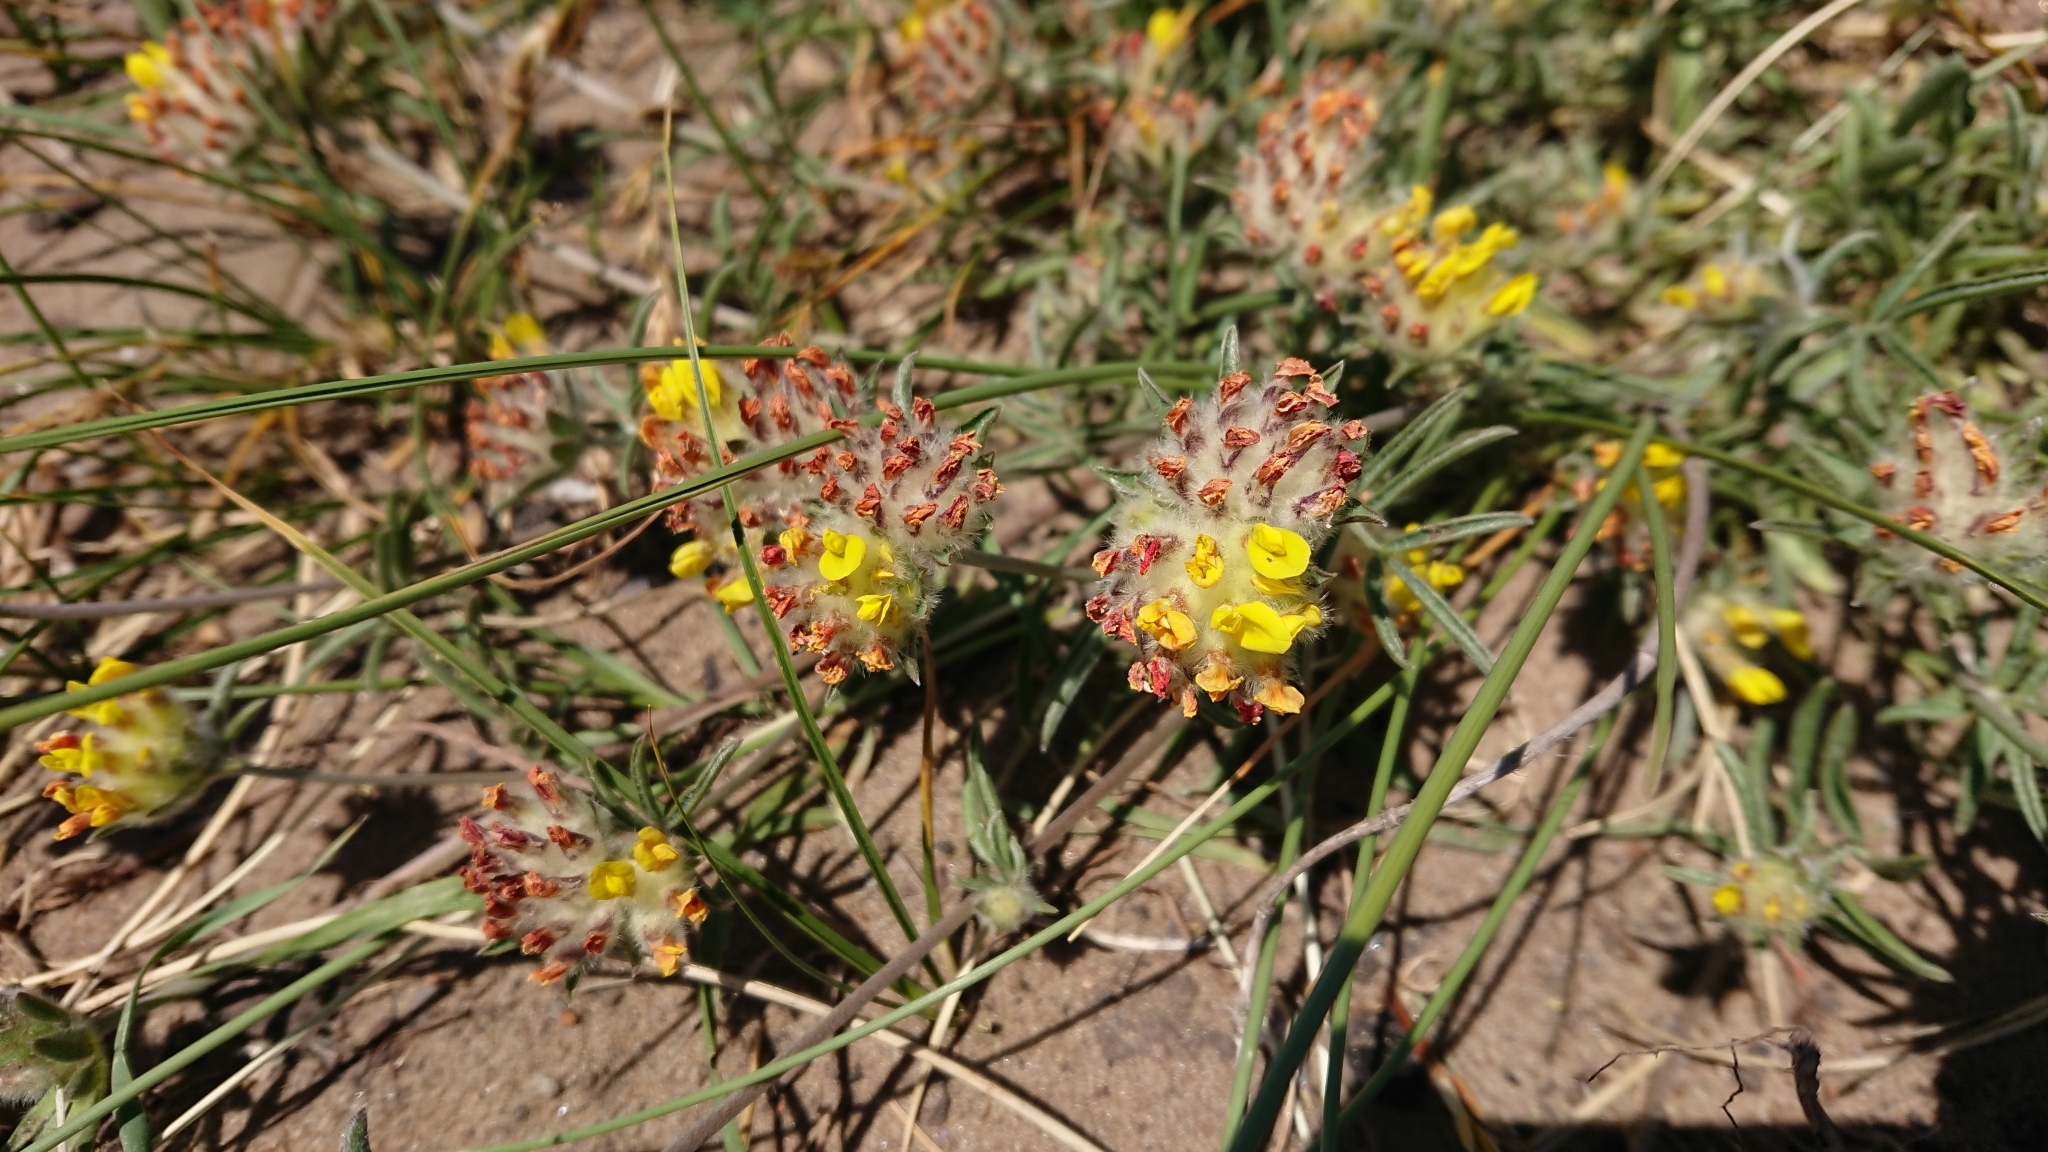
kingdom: Plantae
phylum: Tracheophyta
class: Magnoliopsida
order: Fabales
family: Fabaceae
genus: Anthyllis
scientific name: Anthyllis vulneraria
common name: Kidney vetch
